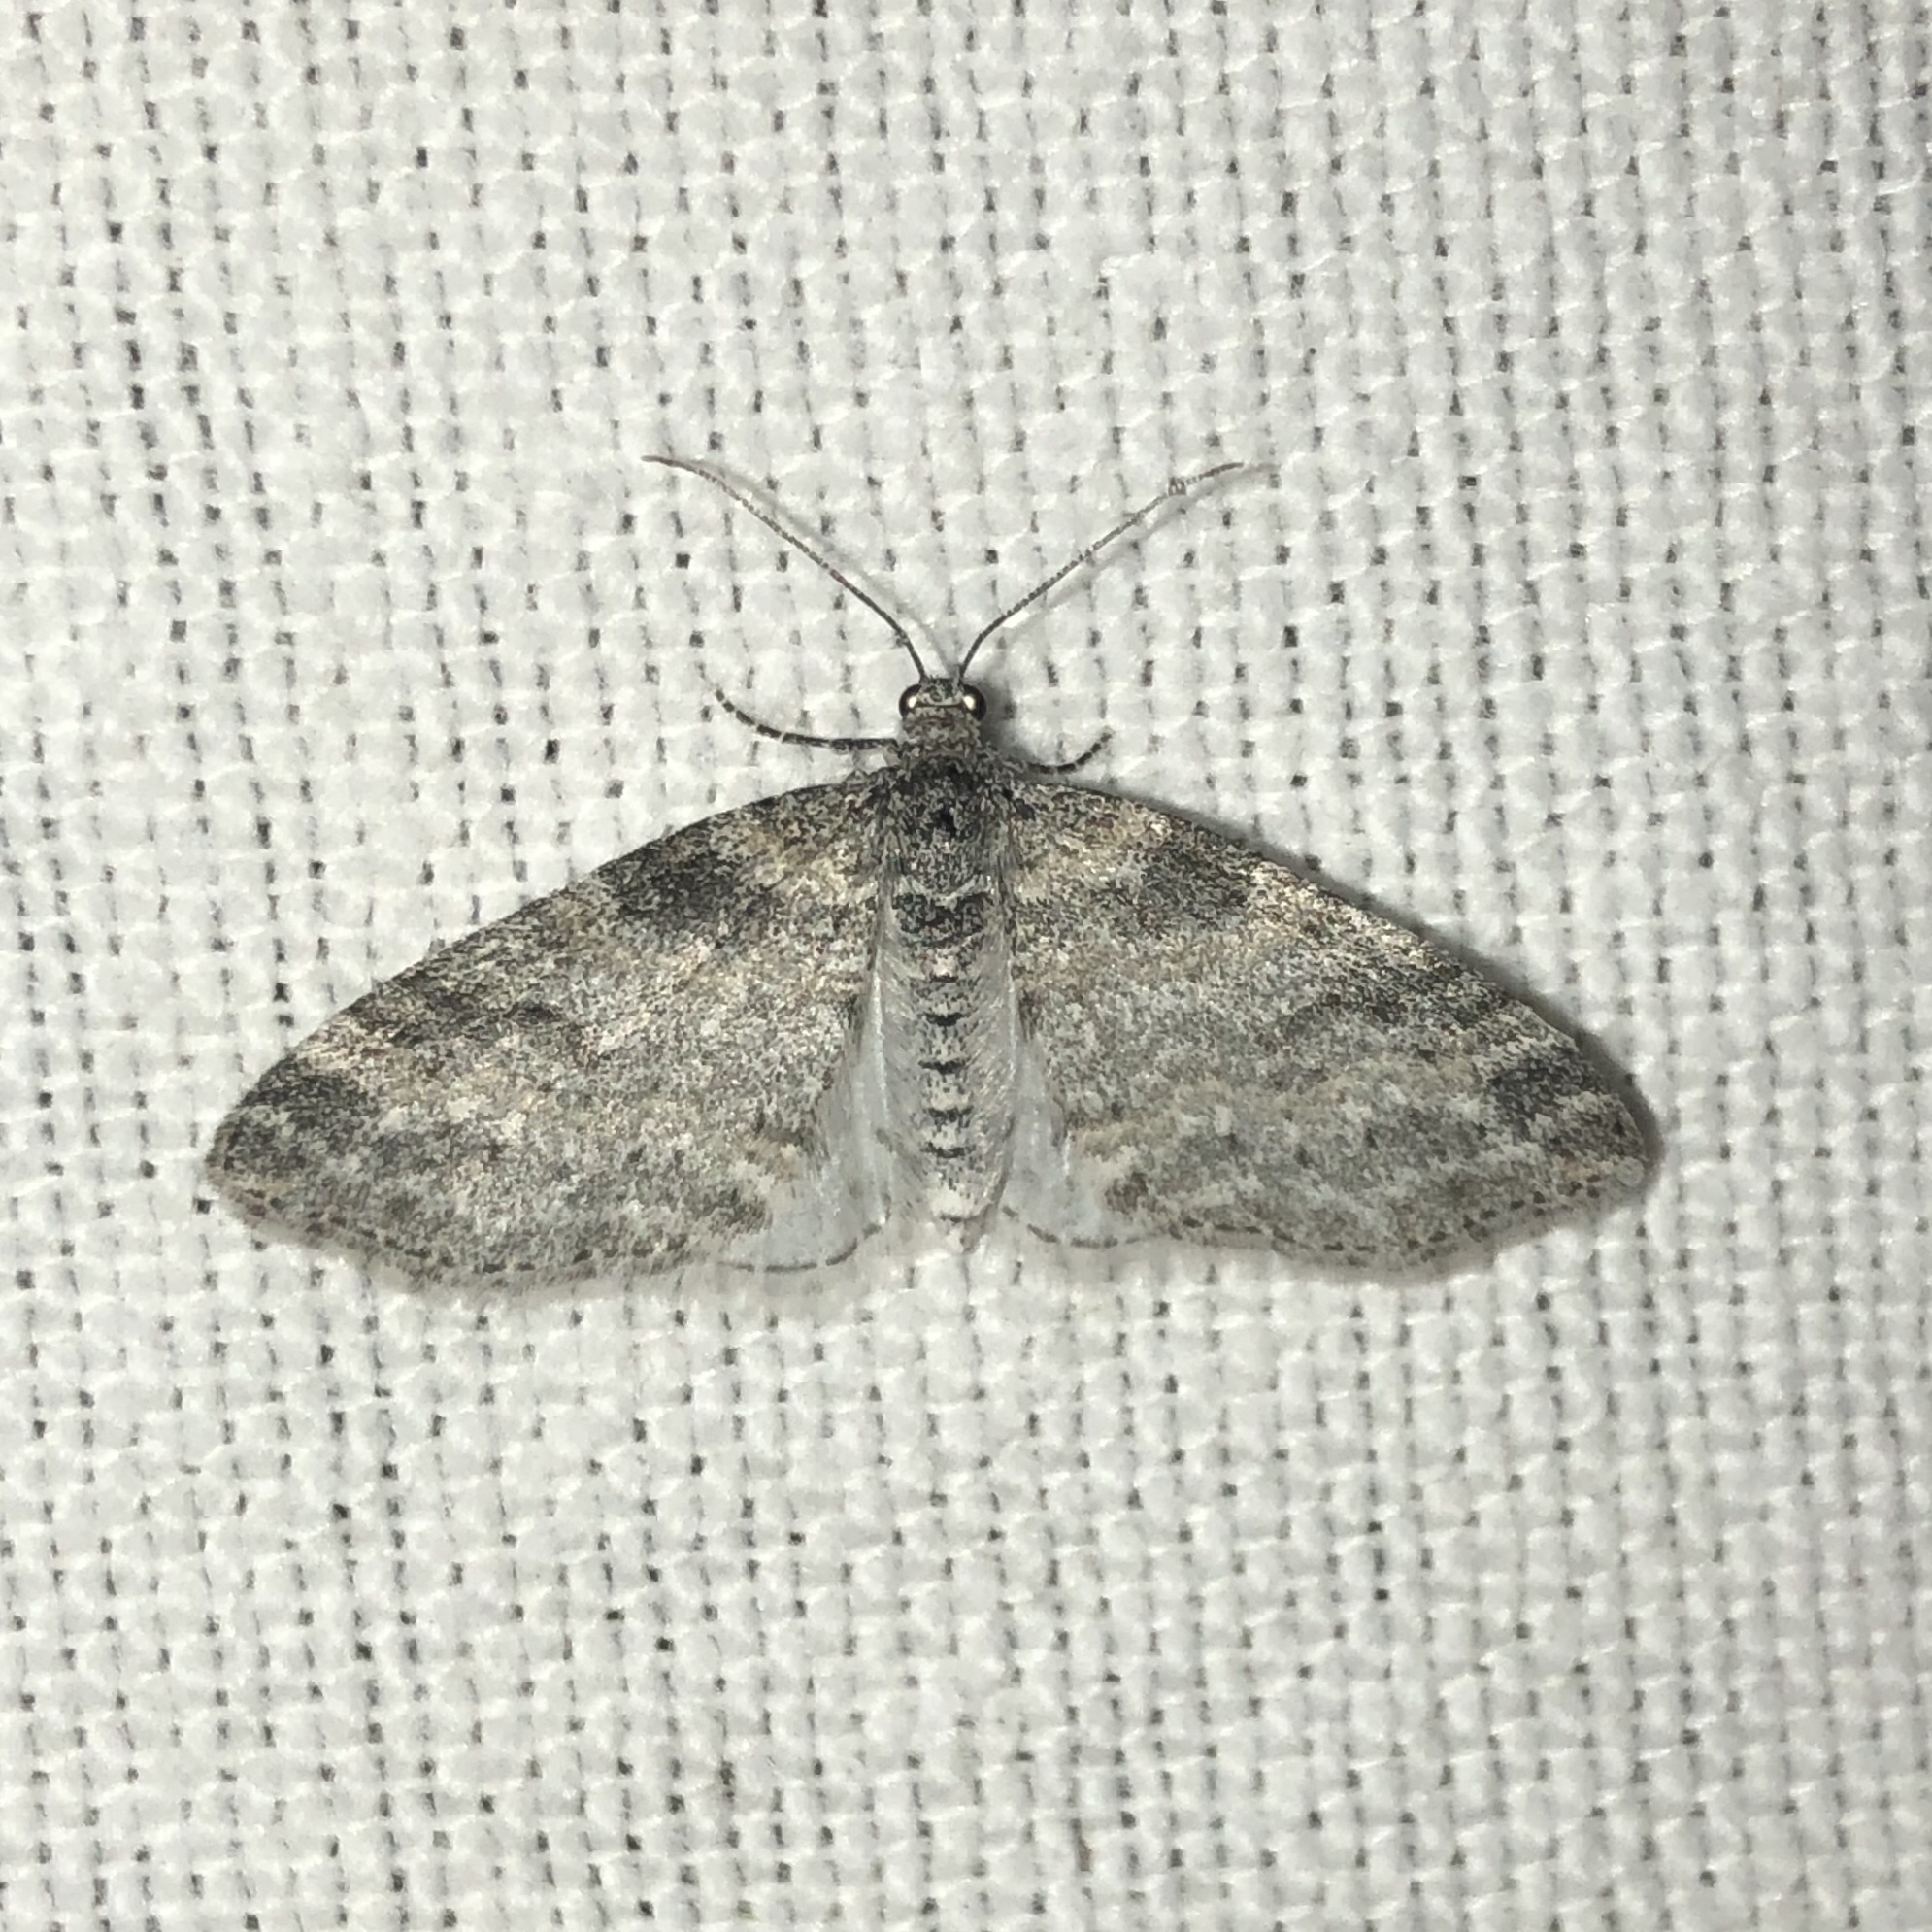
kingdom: Animalia
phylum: Arthropoda
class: Insecta
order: Lepidoptera
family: Geometridae
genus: Lobophora
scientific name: Lobophora nivigerata
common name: Powdered bigwing
